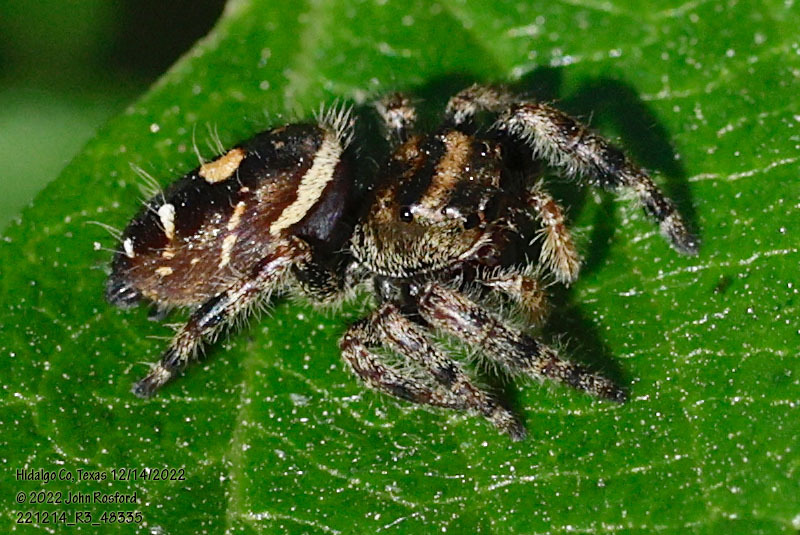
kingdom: Animalia
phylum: Arthropoda
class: Arachnida
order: Araneae
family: Salticidae
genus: Phidippus
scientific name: Phidippus audax
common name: Bold jumper
